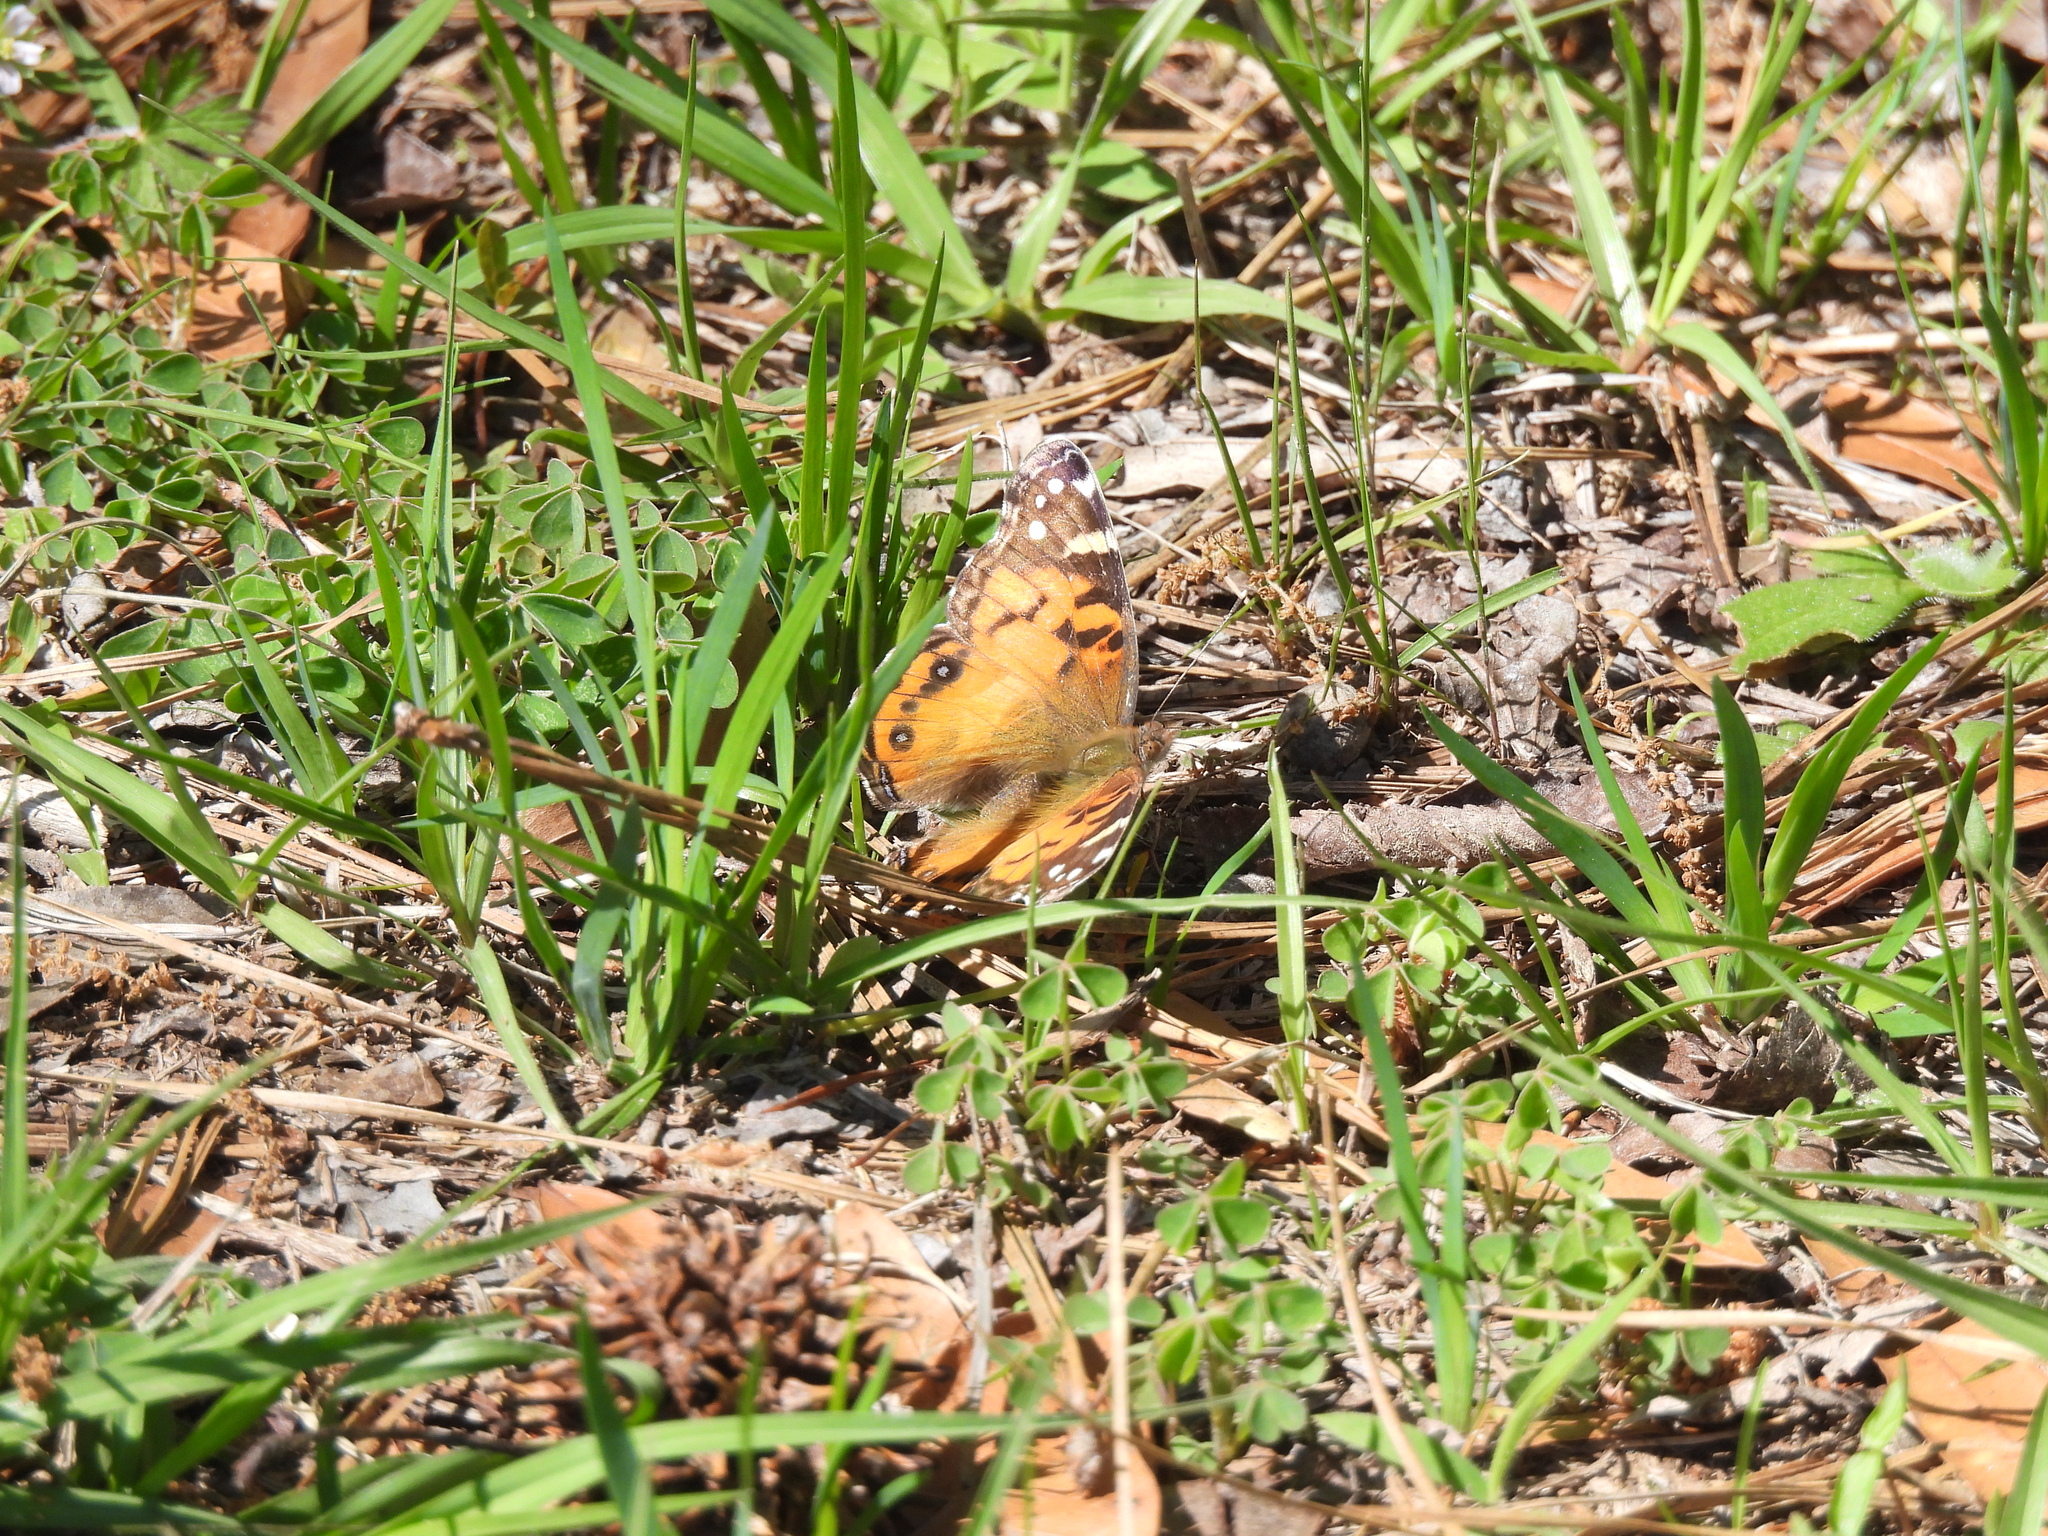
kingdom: Animalia
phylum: Arthropoda
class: Insecta
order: Lepidoptera
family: Nymphalidae
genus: Vanessa
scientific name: Vanessa virginiensis
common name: American lady
